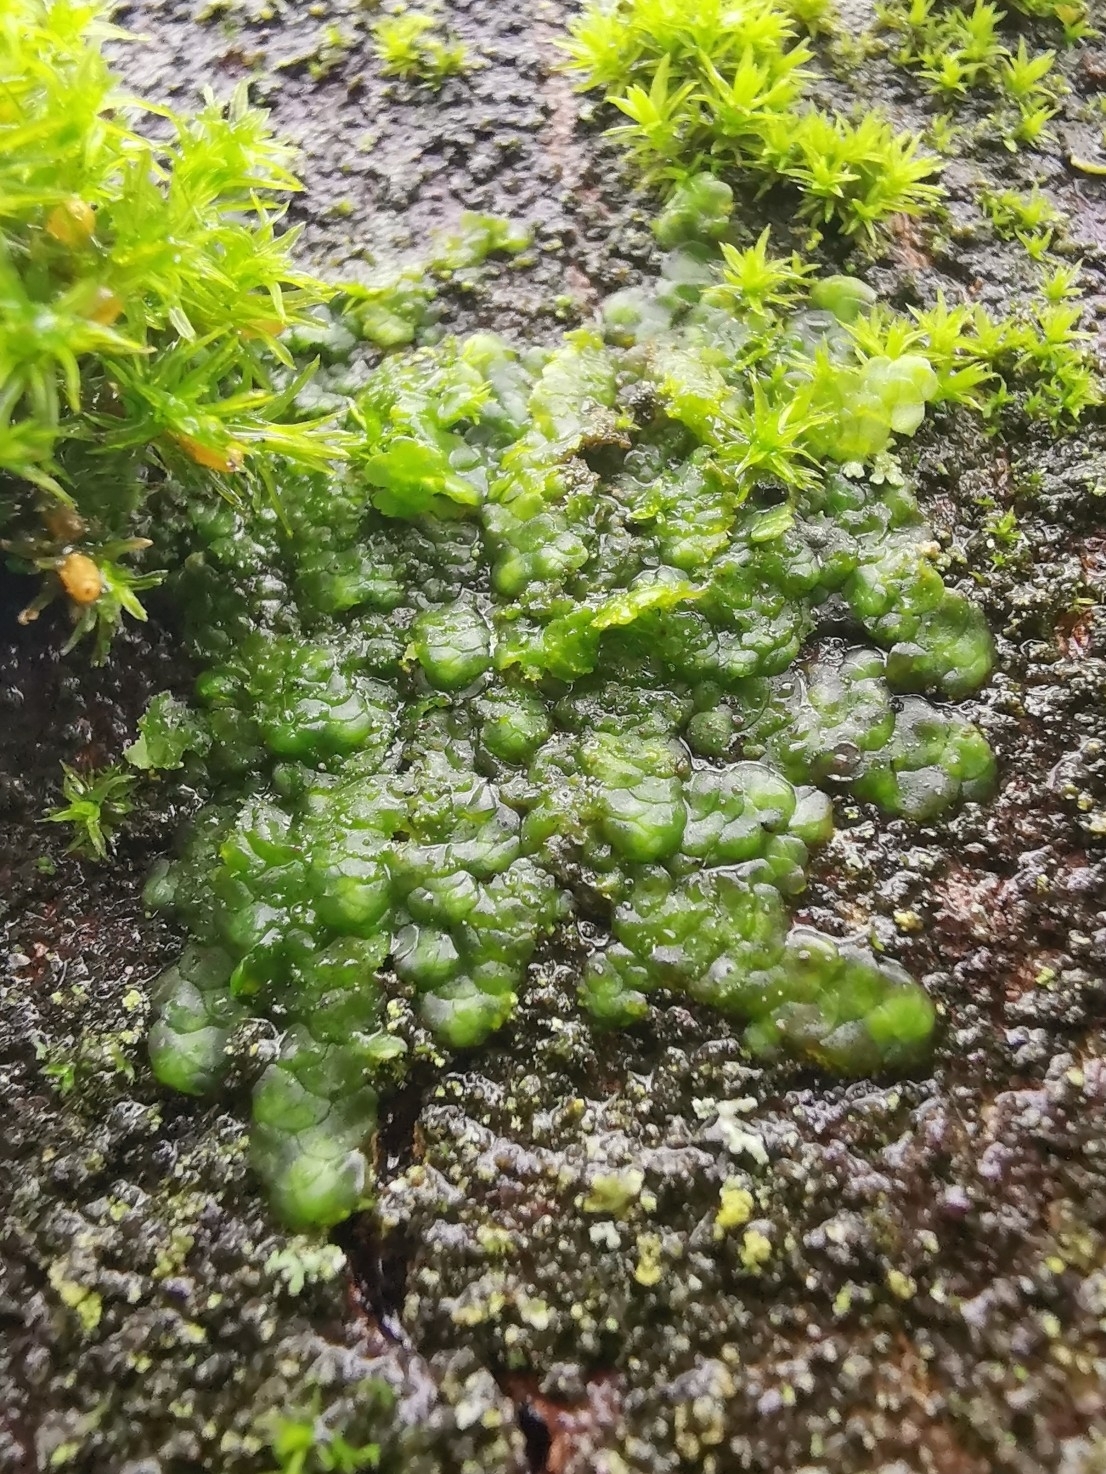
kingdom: Plantae
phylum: Marchantiophyta
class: Jungermanniopsida
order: Porellales
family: Radulaceae
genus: Radula
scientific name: Radula complanata
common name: Flat-leaved scalewort
